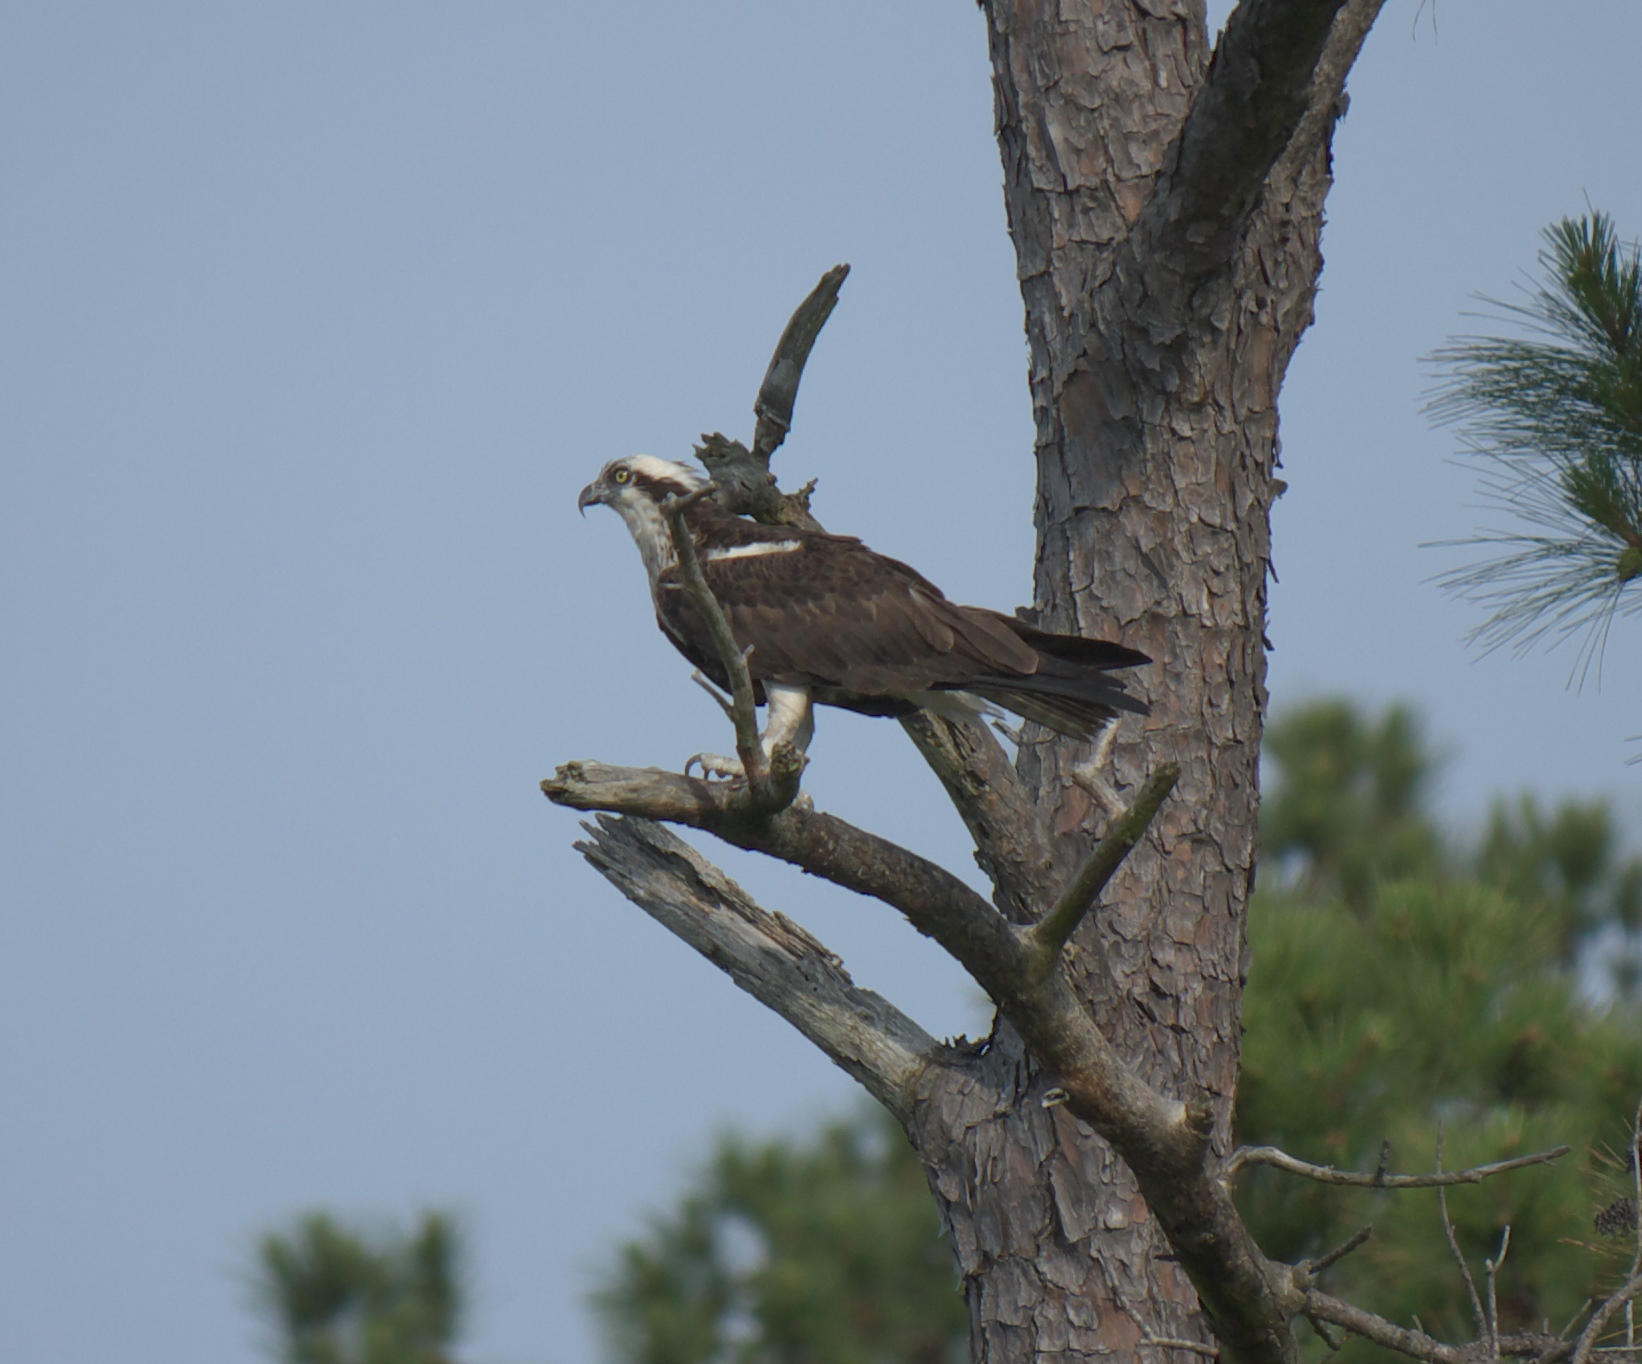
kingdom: Animalia
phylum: Chordata
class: Aves
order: Accipitriformes
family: Pandionidae
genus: Pandion
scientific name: Pandion haliaetus
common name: Osprey
